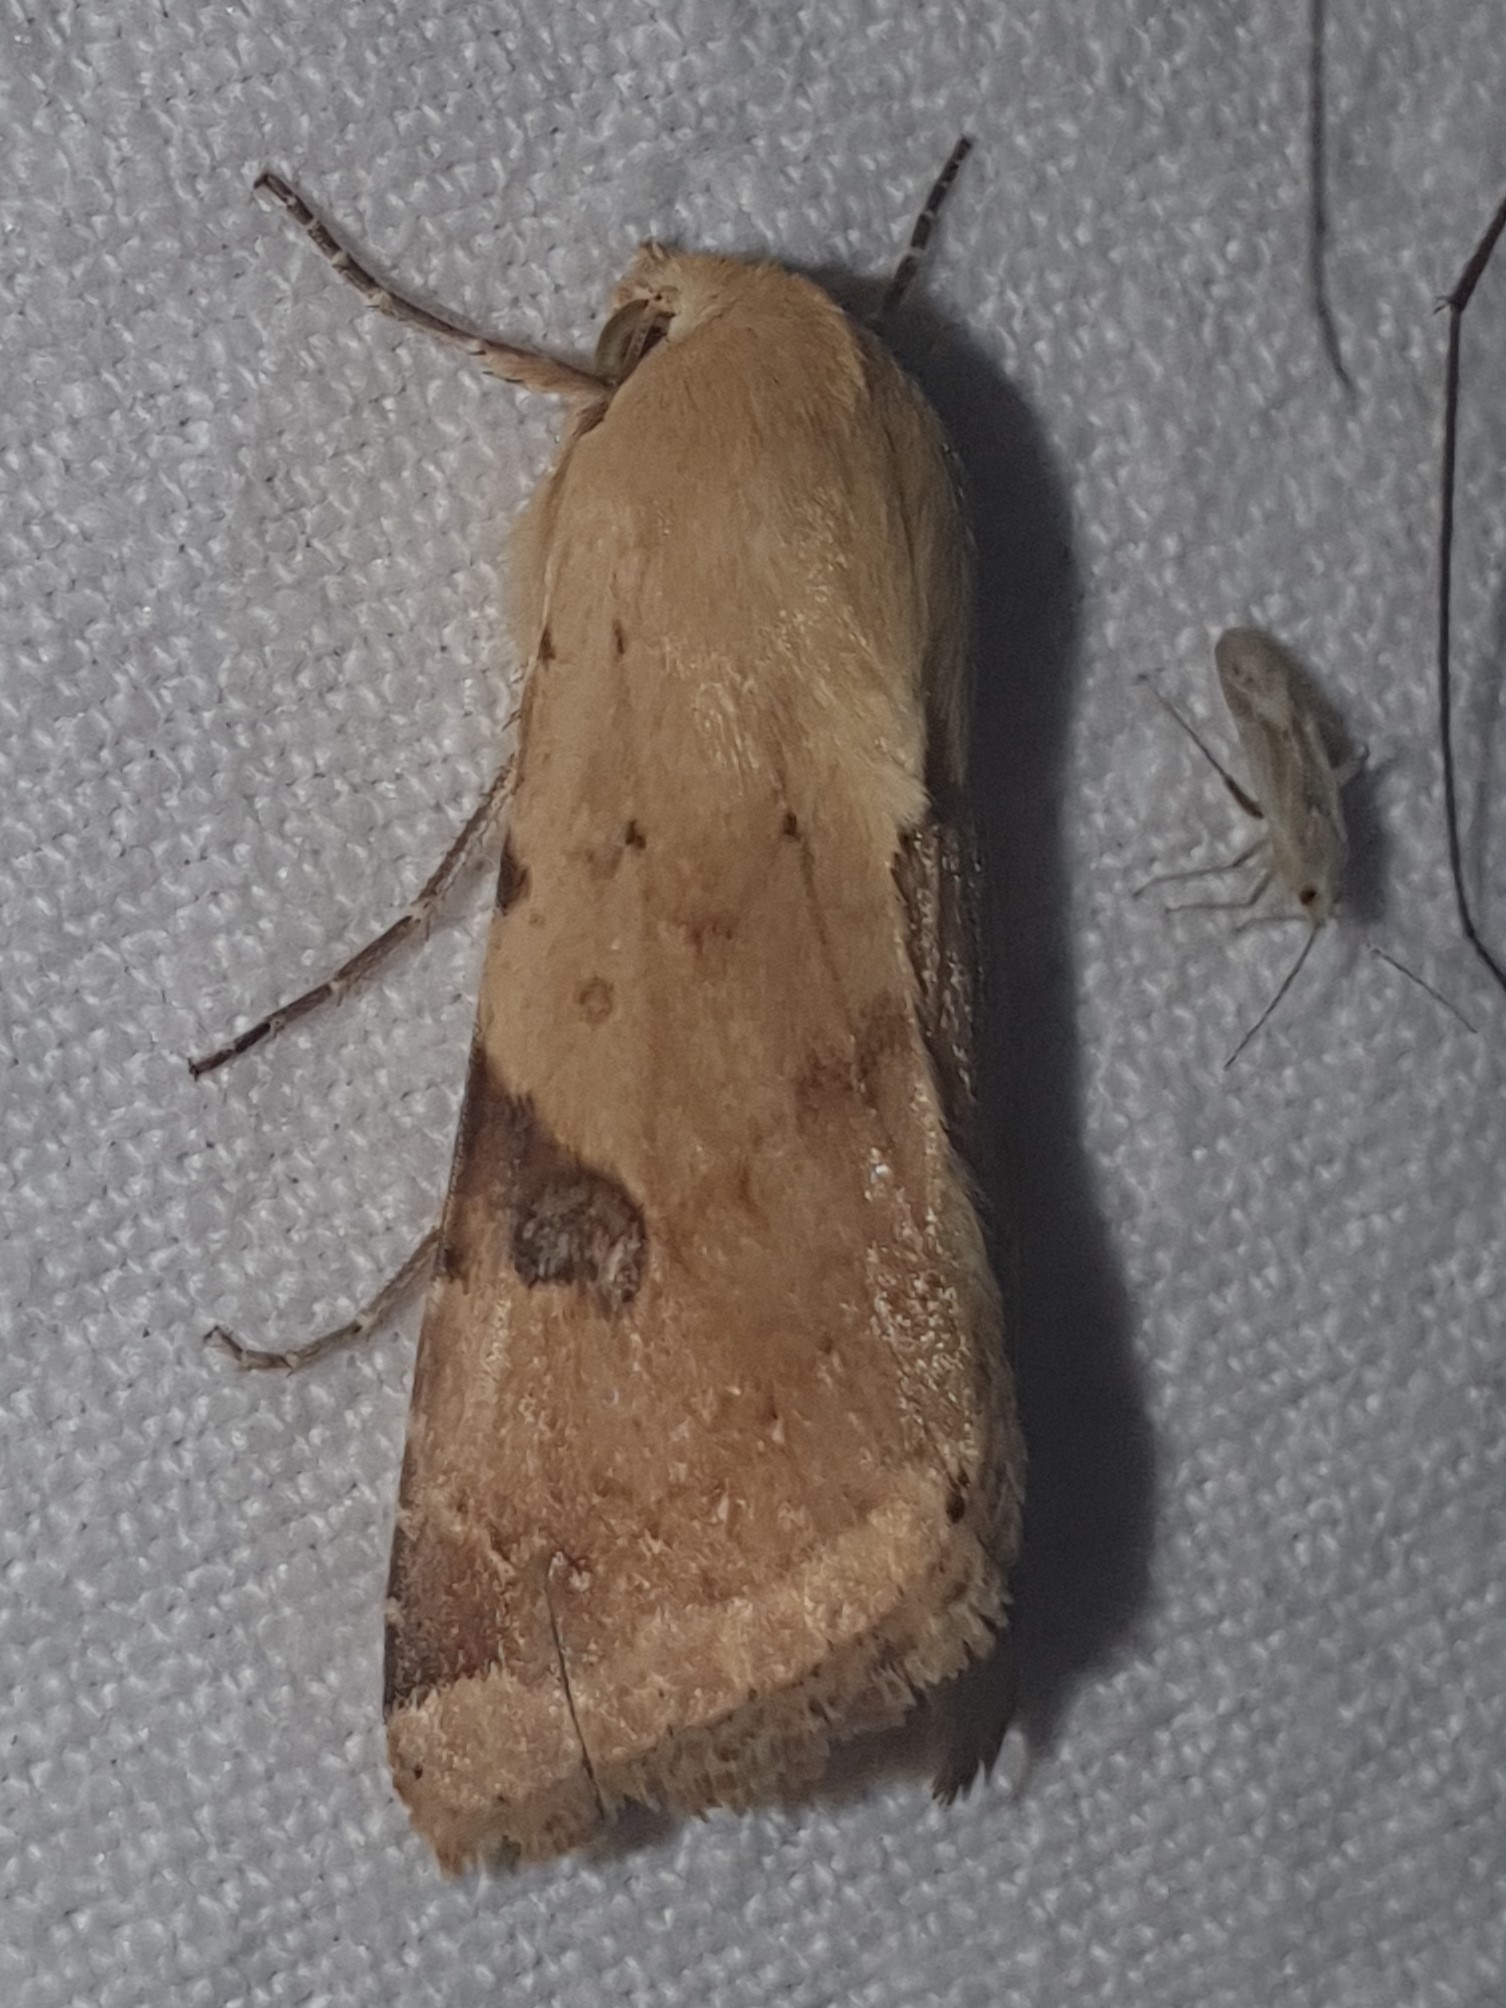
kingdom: Animalia
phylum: Arthropoda
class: Insecta
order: Lepidoptera
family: Noctuidae
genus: Heliothis
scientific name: Heliothis peltigera
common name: Bordered straw
